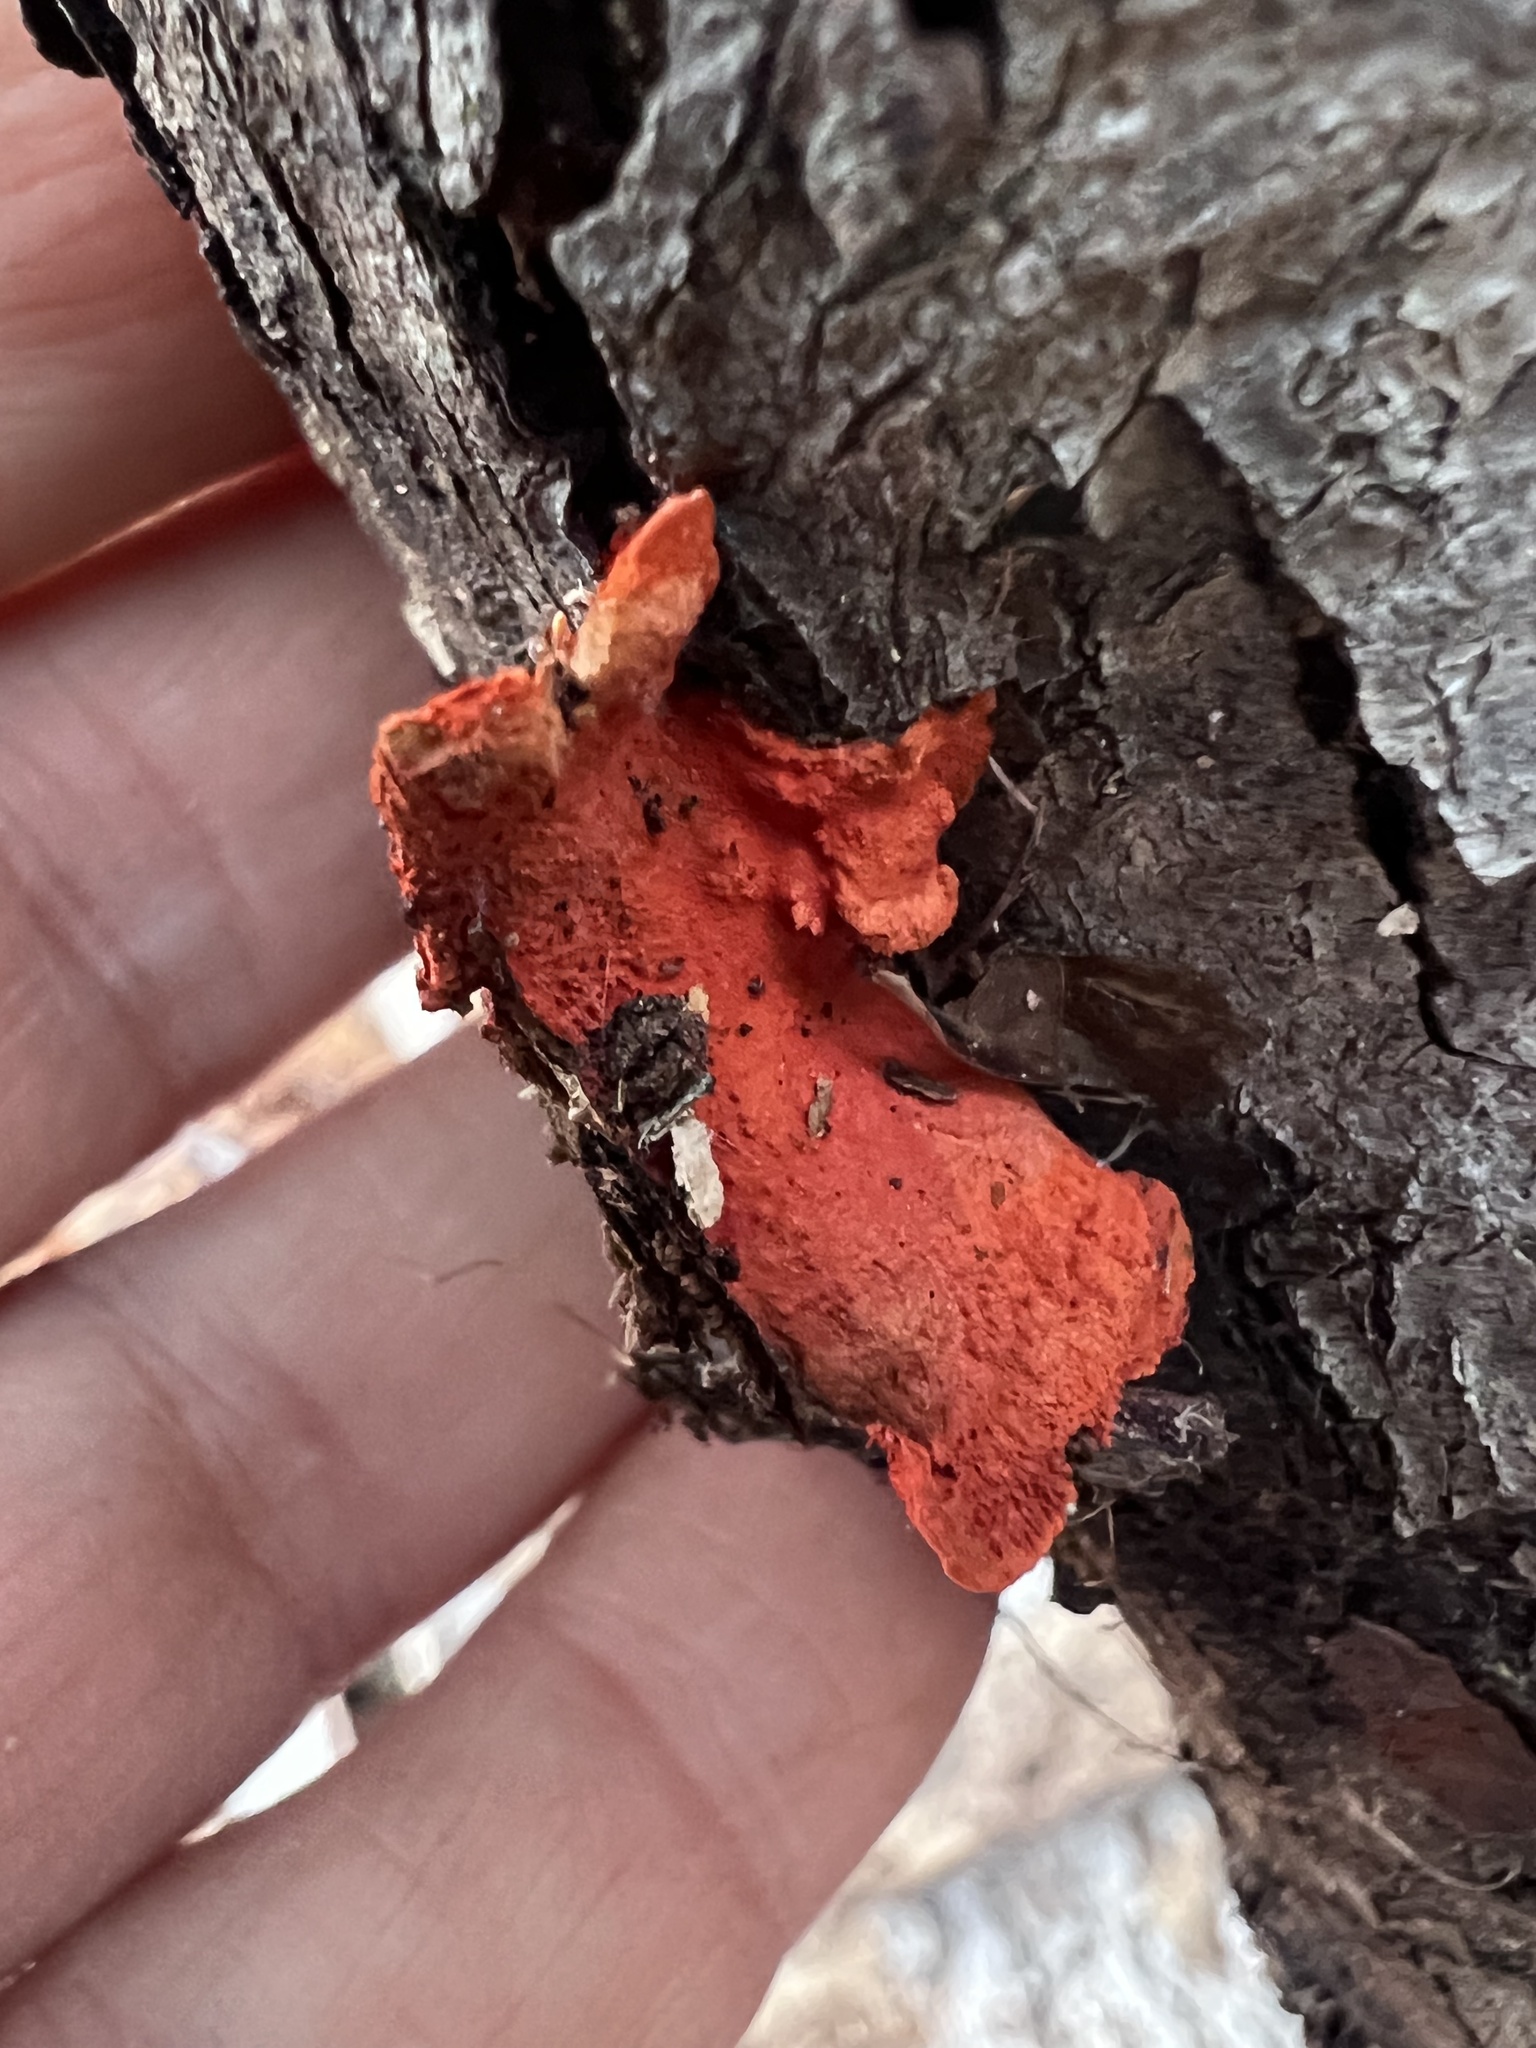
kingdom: Fungi
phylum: Basidiomycota
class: Agaricomycetes
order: Polyporales
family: Polyporaceae
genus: Trametes
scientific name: Trametes cinnabarina
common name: Northern cinnabar polypore
